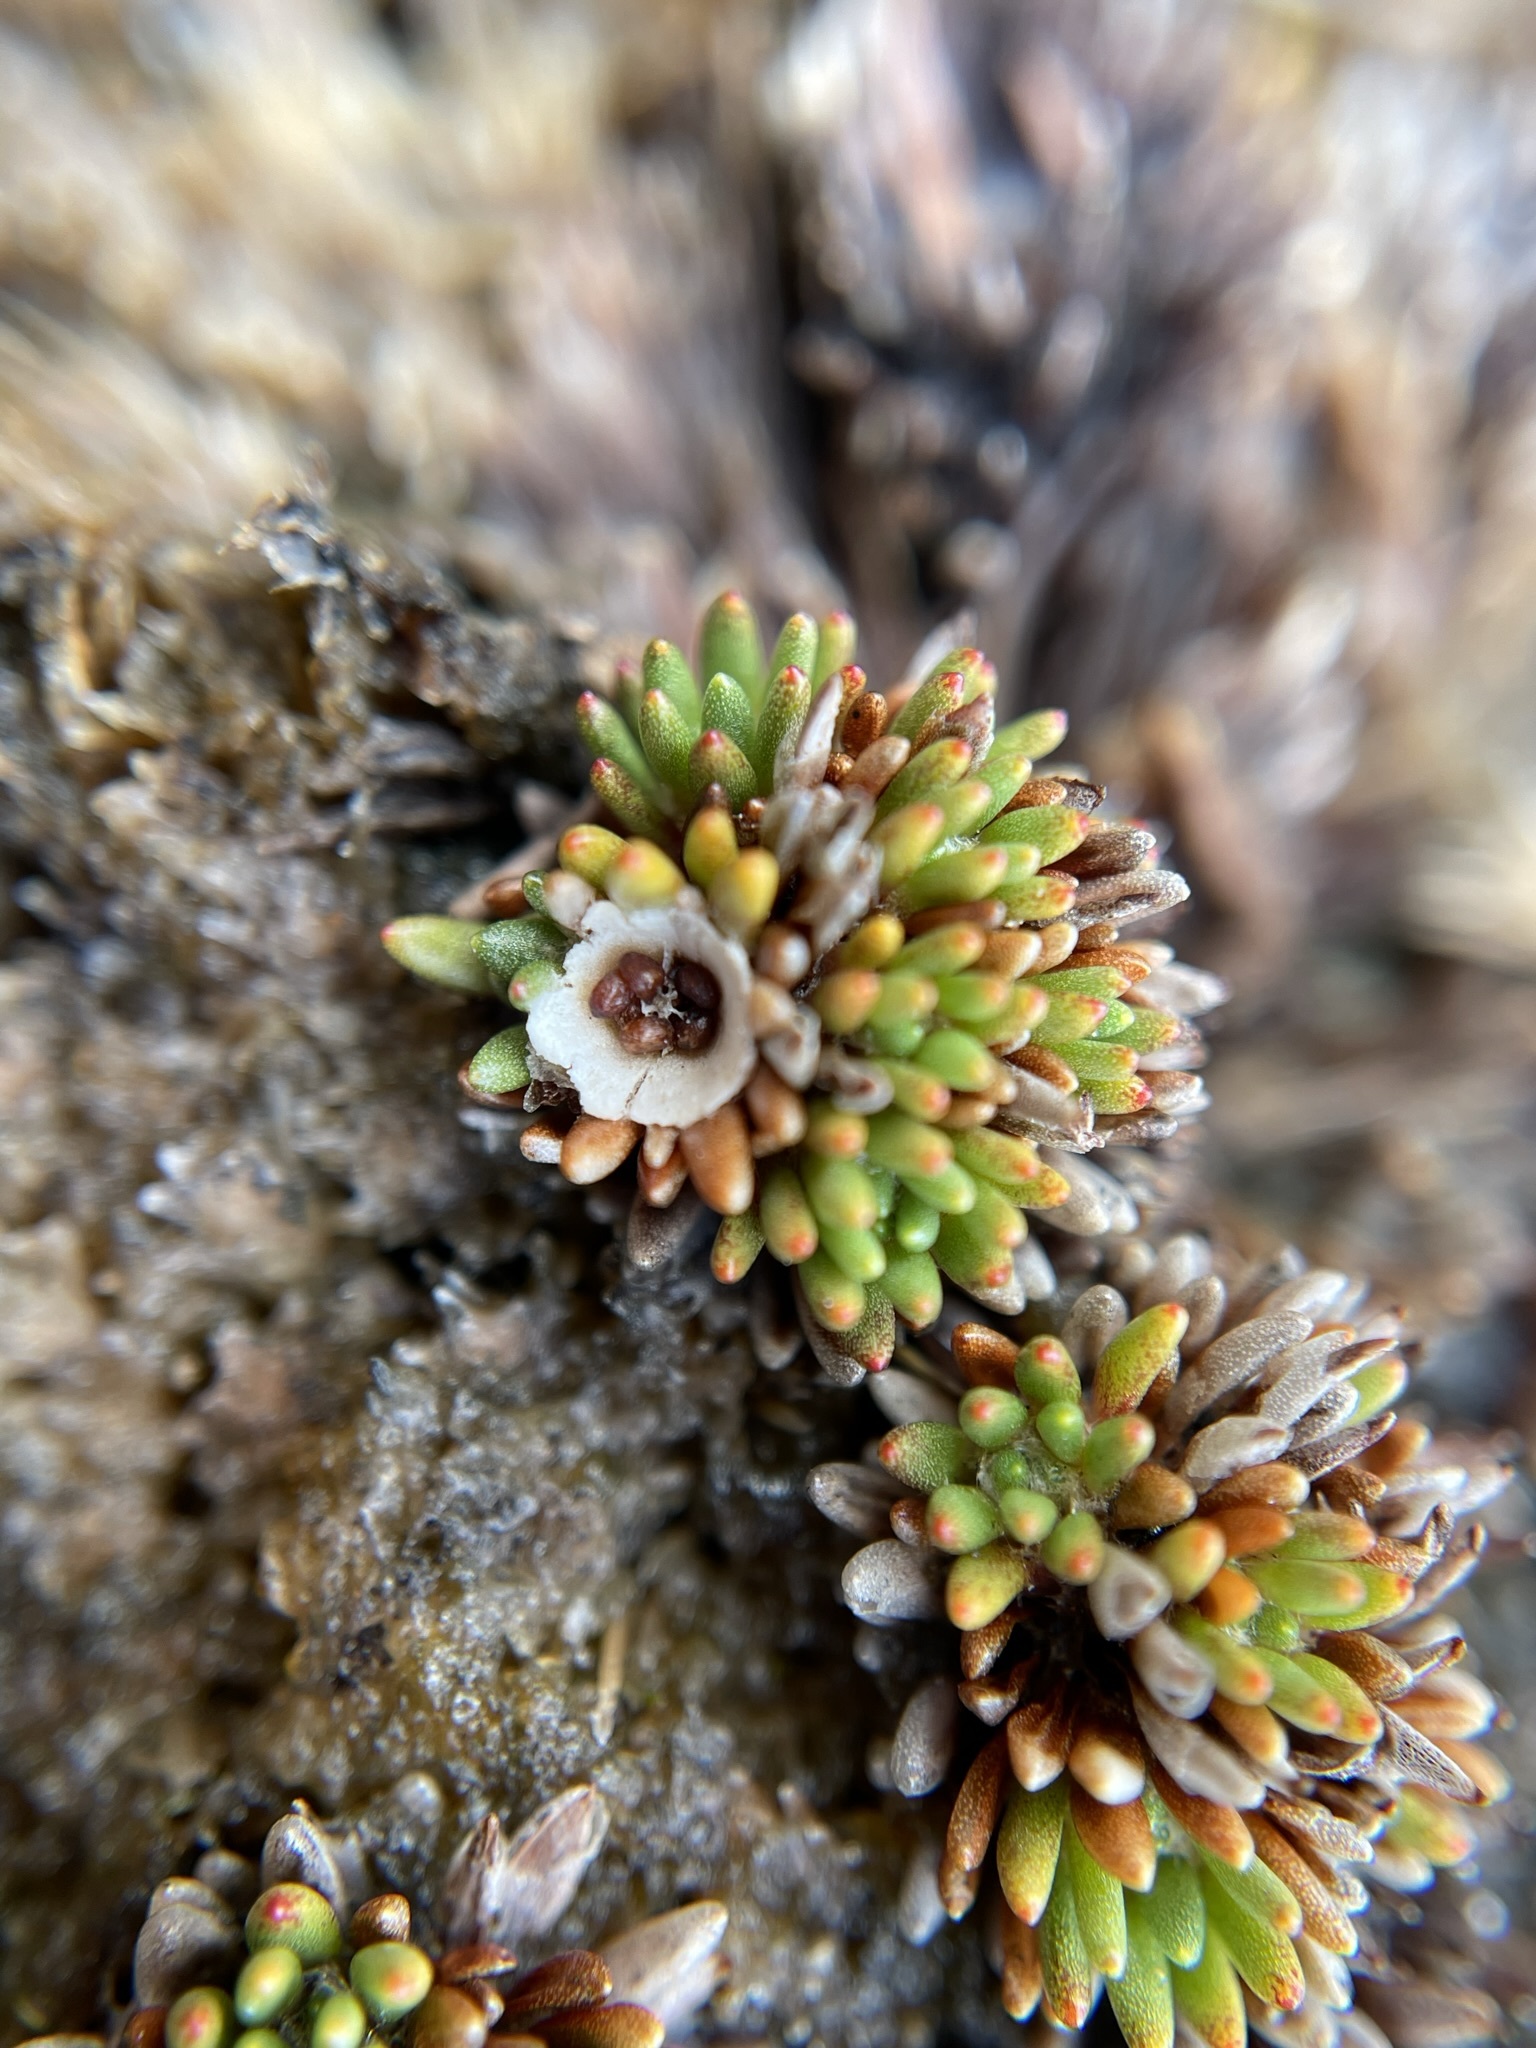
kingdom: Plantae
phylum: Tracheophyta
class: Magnoliopsida
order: Asterales
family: Stylidiaceae
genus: Donatia
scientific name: Donatia novae-zelandiae
